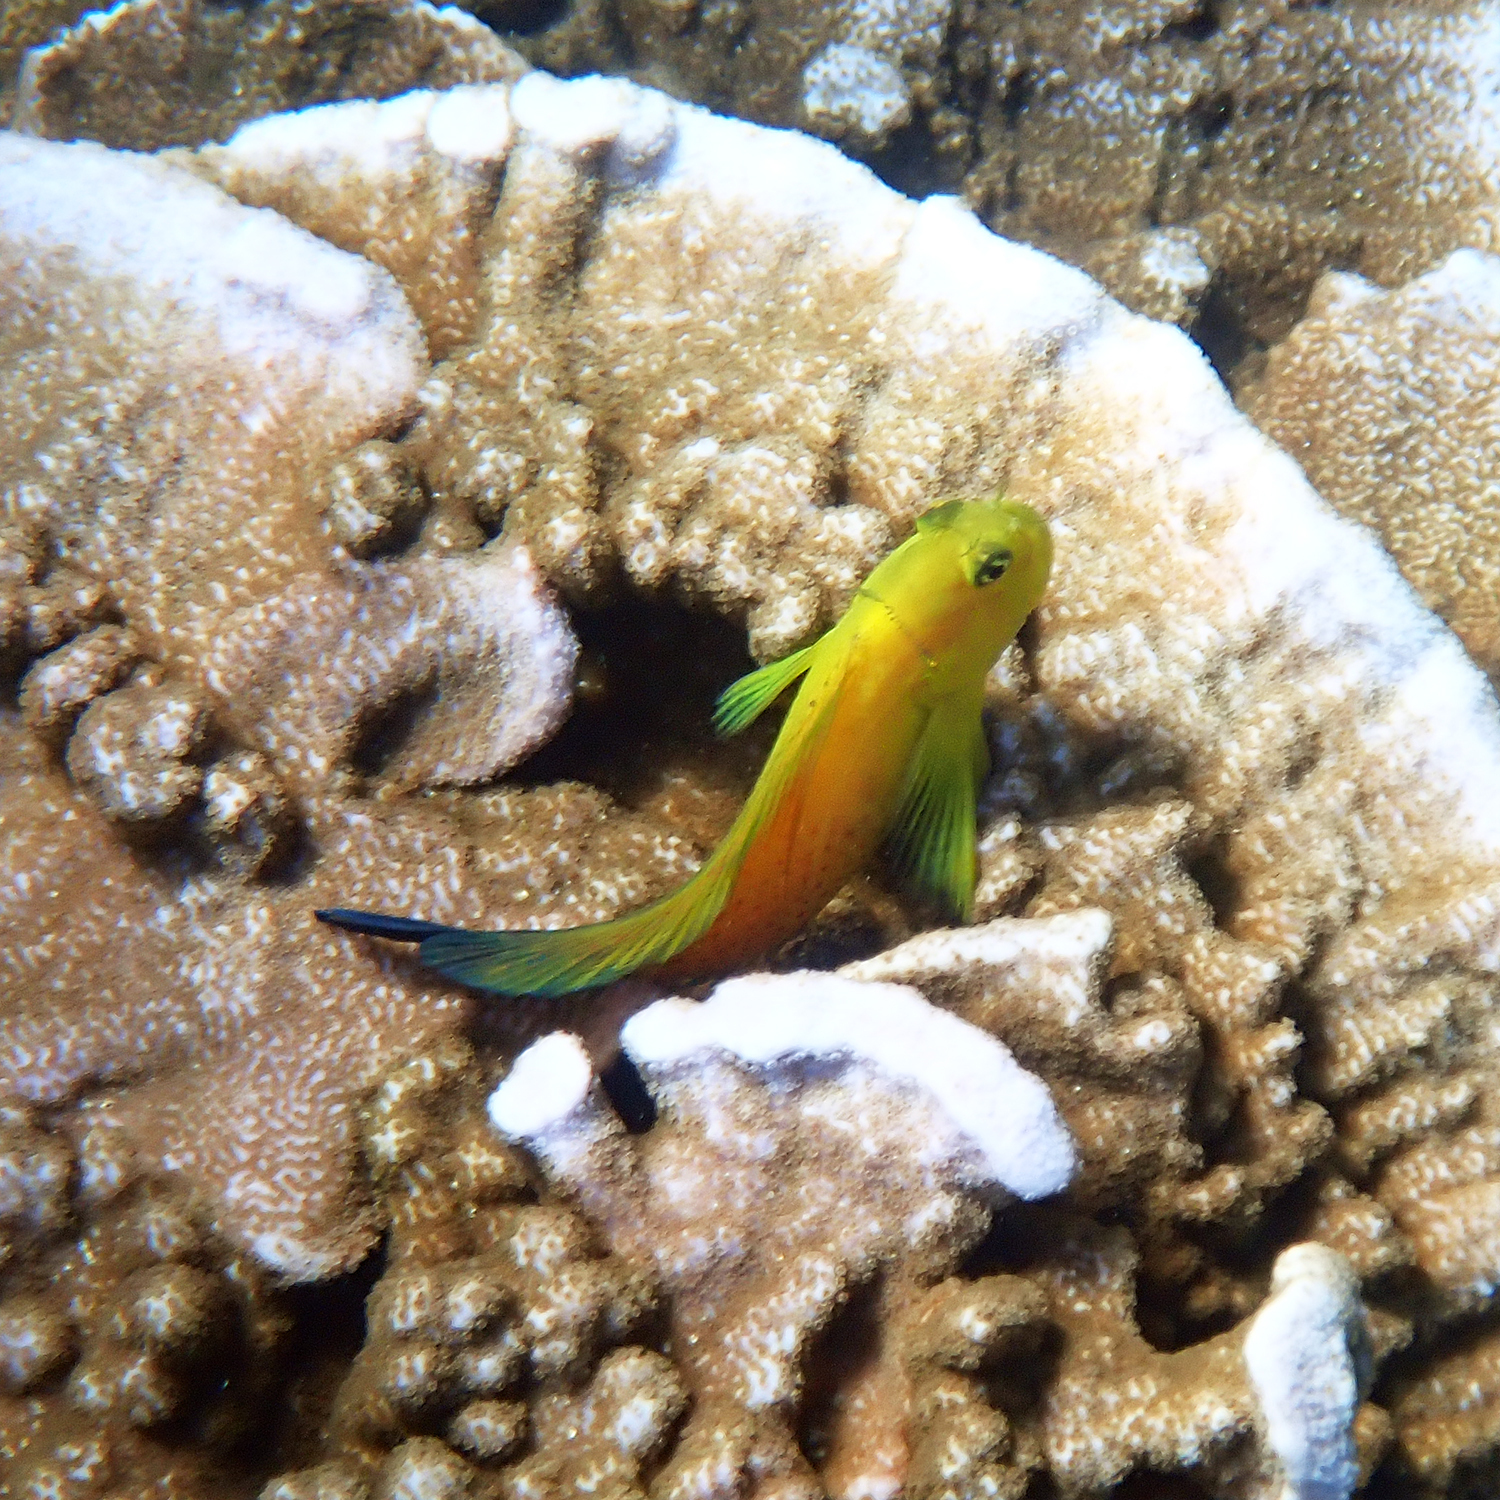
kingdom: Animalia
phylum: Chordata
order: Perciformes
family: Blenniidae
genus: Cirripectes
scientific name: Cirripectes chelomatus
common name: Lady musgrave blenny
